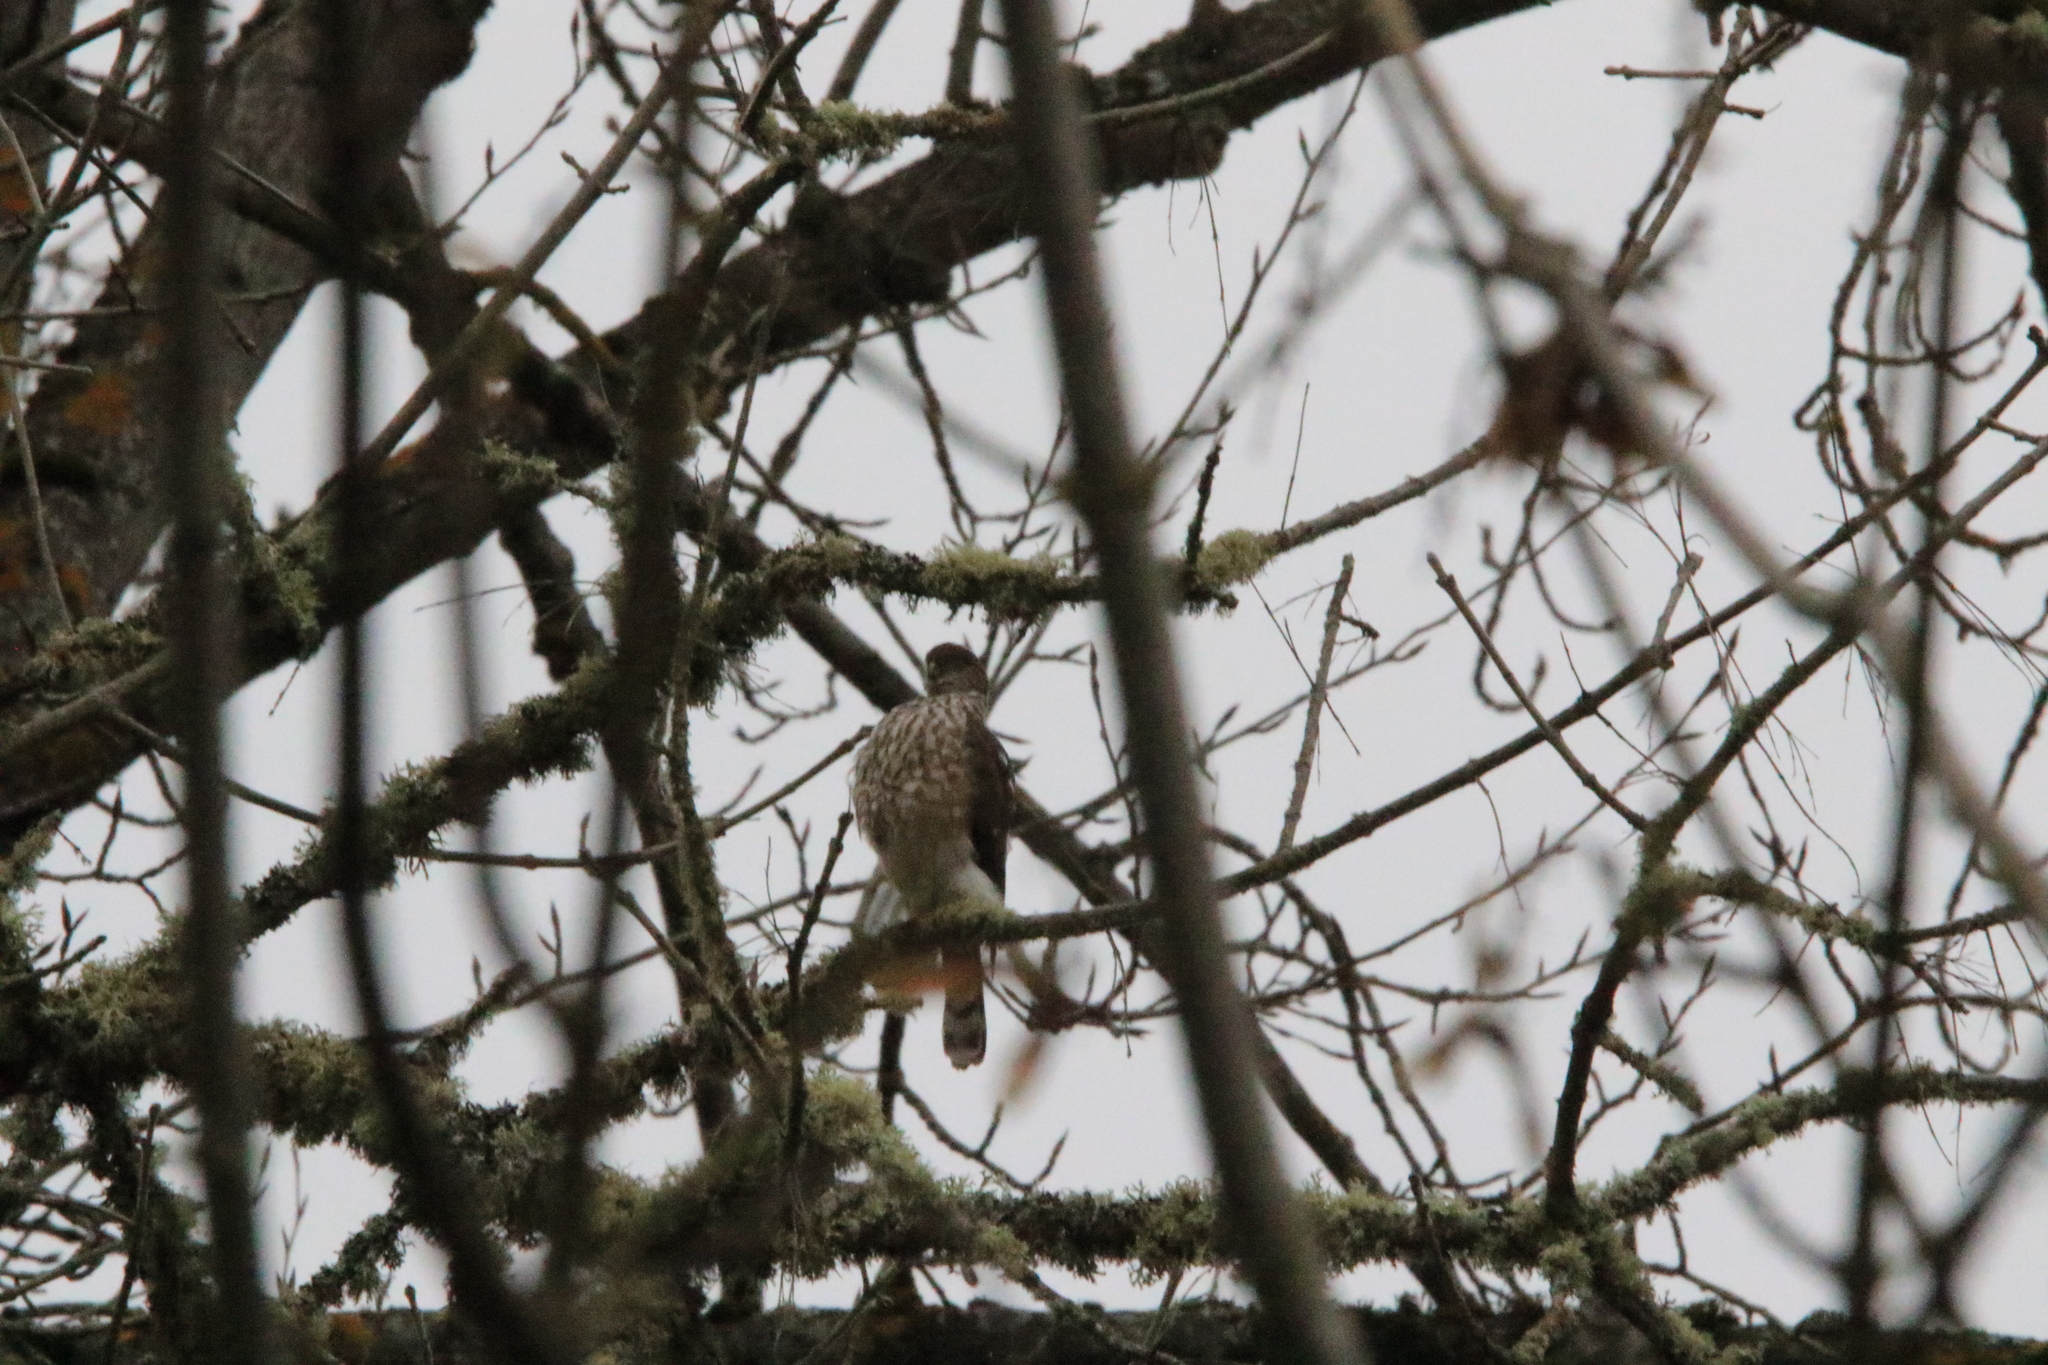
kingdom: Animalia
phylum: Chordata
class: Aves
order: Accipitriformes
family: Accipitridae
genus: Accipiter
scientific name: Accipiter striatus
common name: Sharp-shinned hawk
